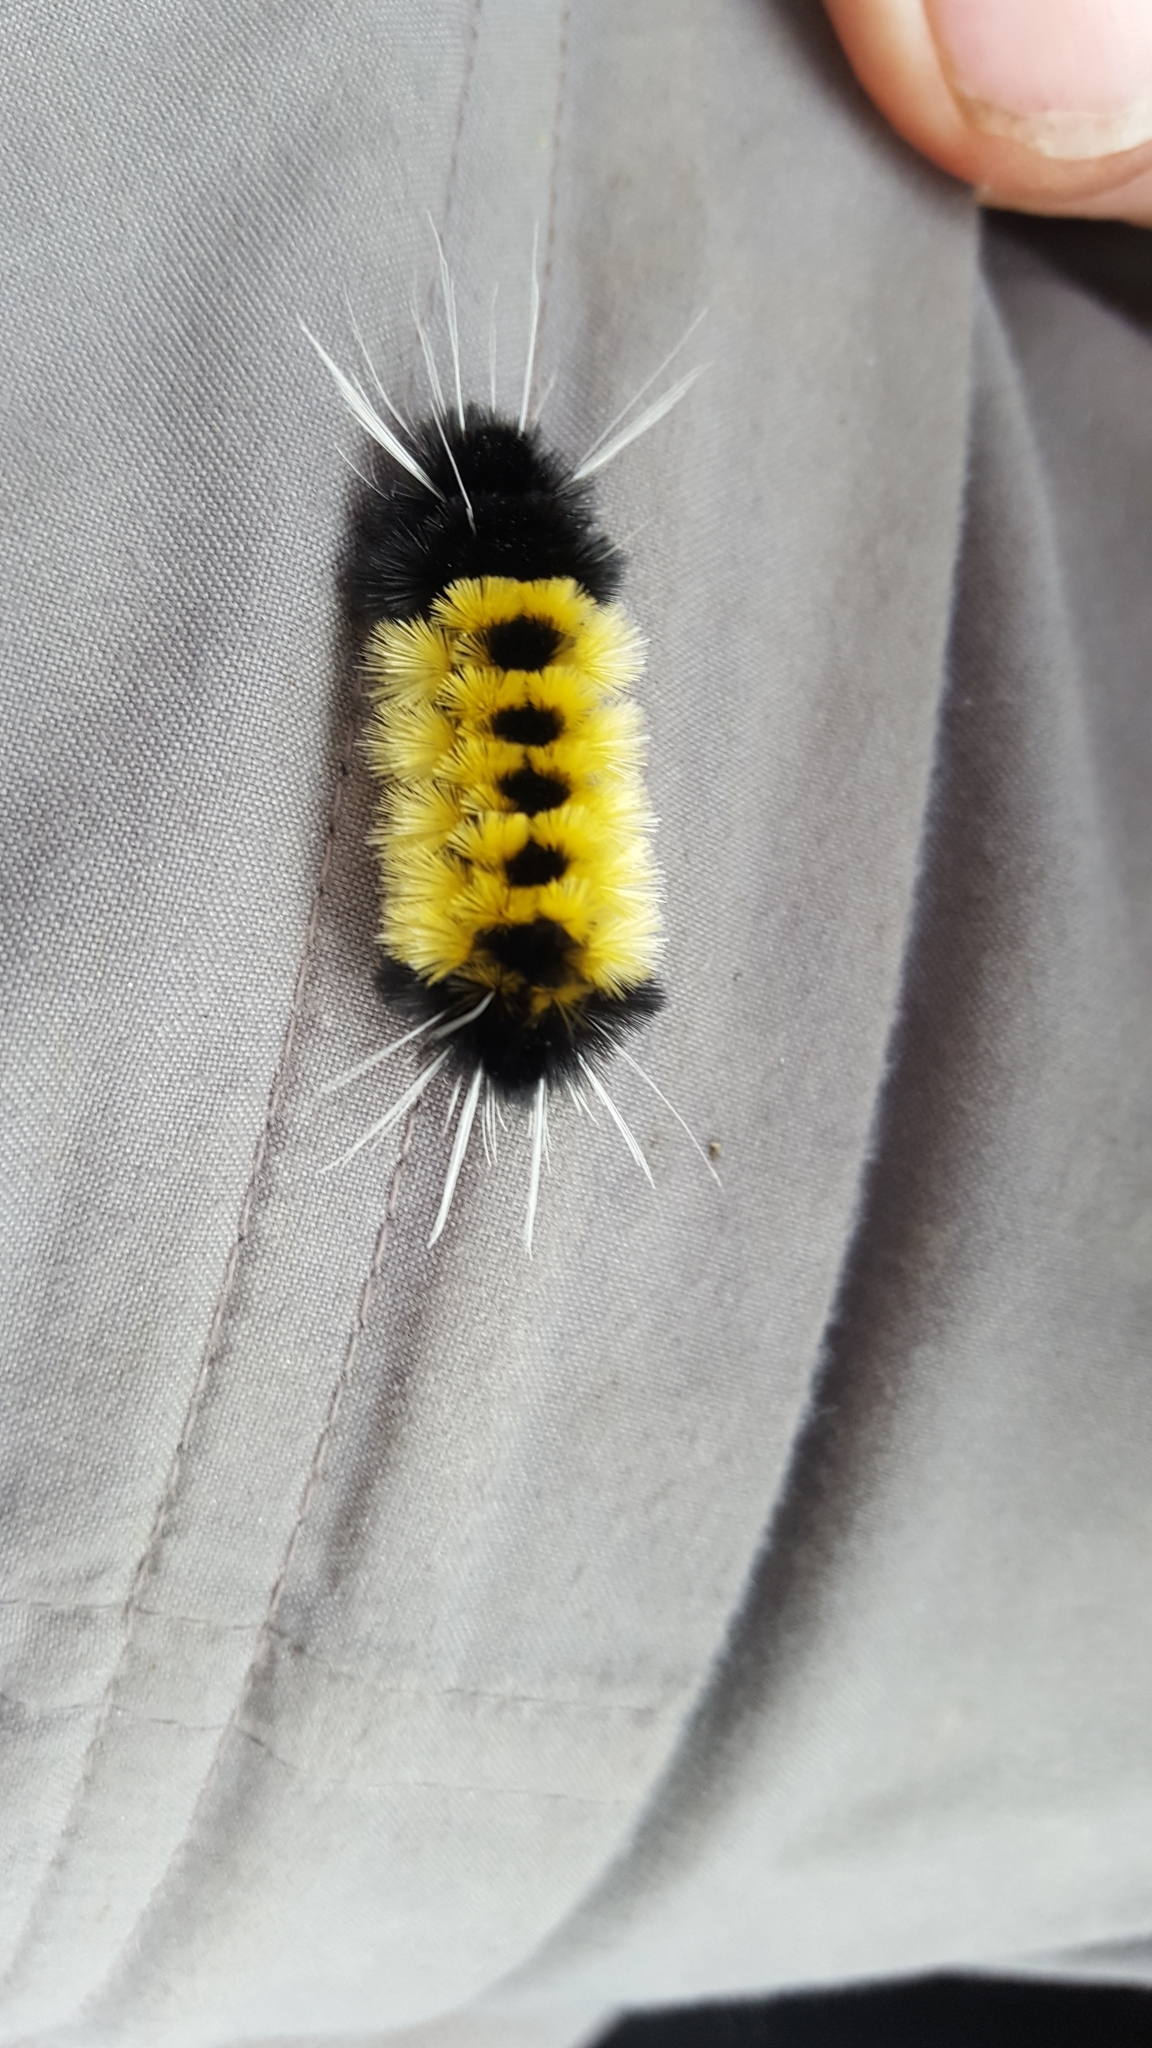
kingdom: Animalia
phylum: Arthropoda
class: Insecta
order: Lepidoptera
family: Erebidae
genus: Lophocampa
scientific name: Lophocampa maculata
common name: Spotted tussock moth
